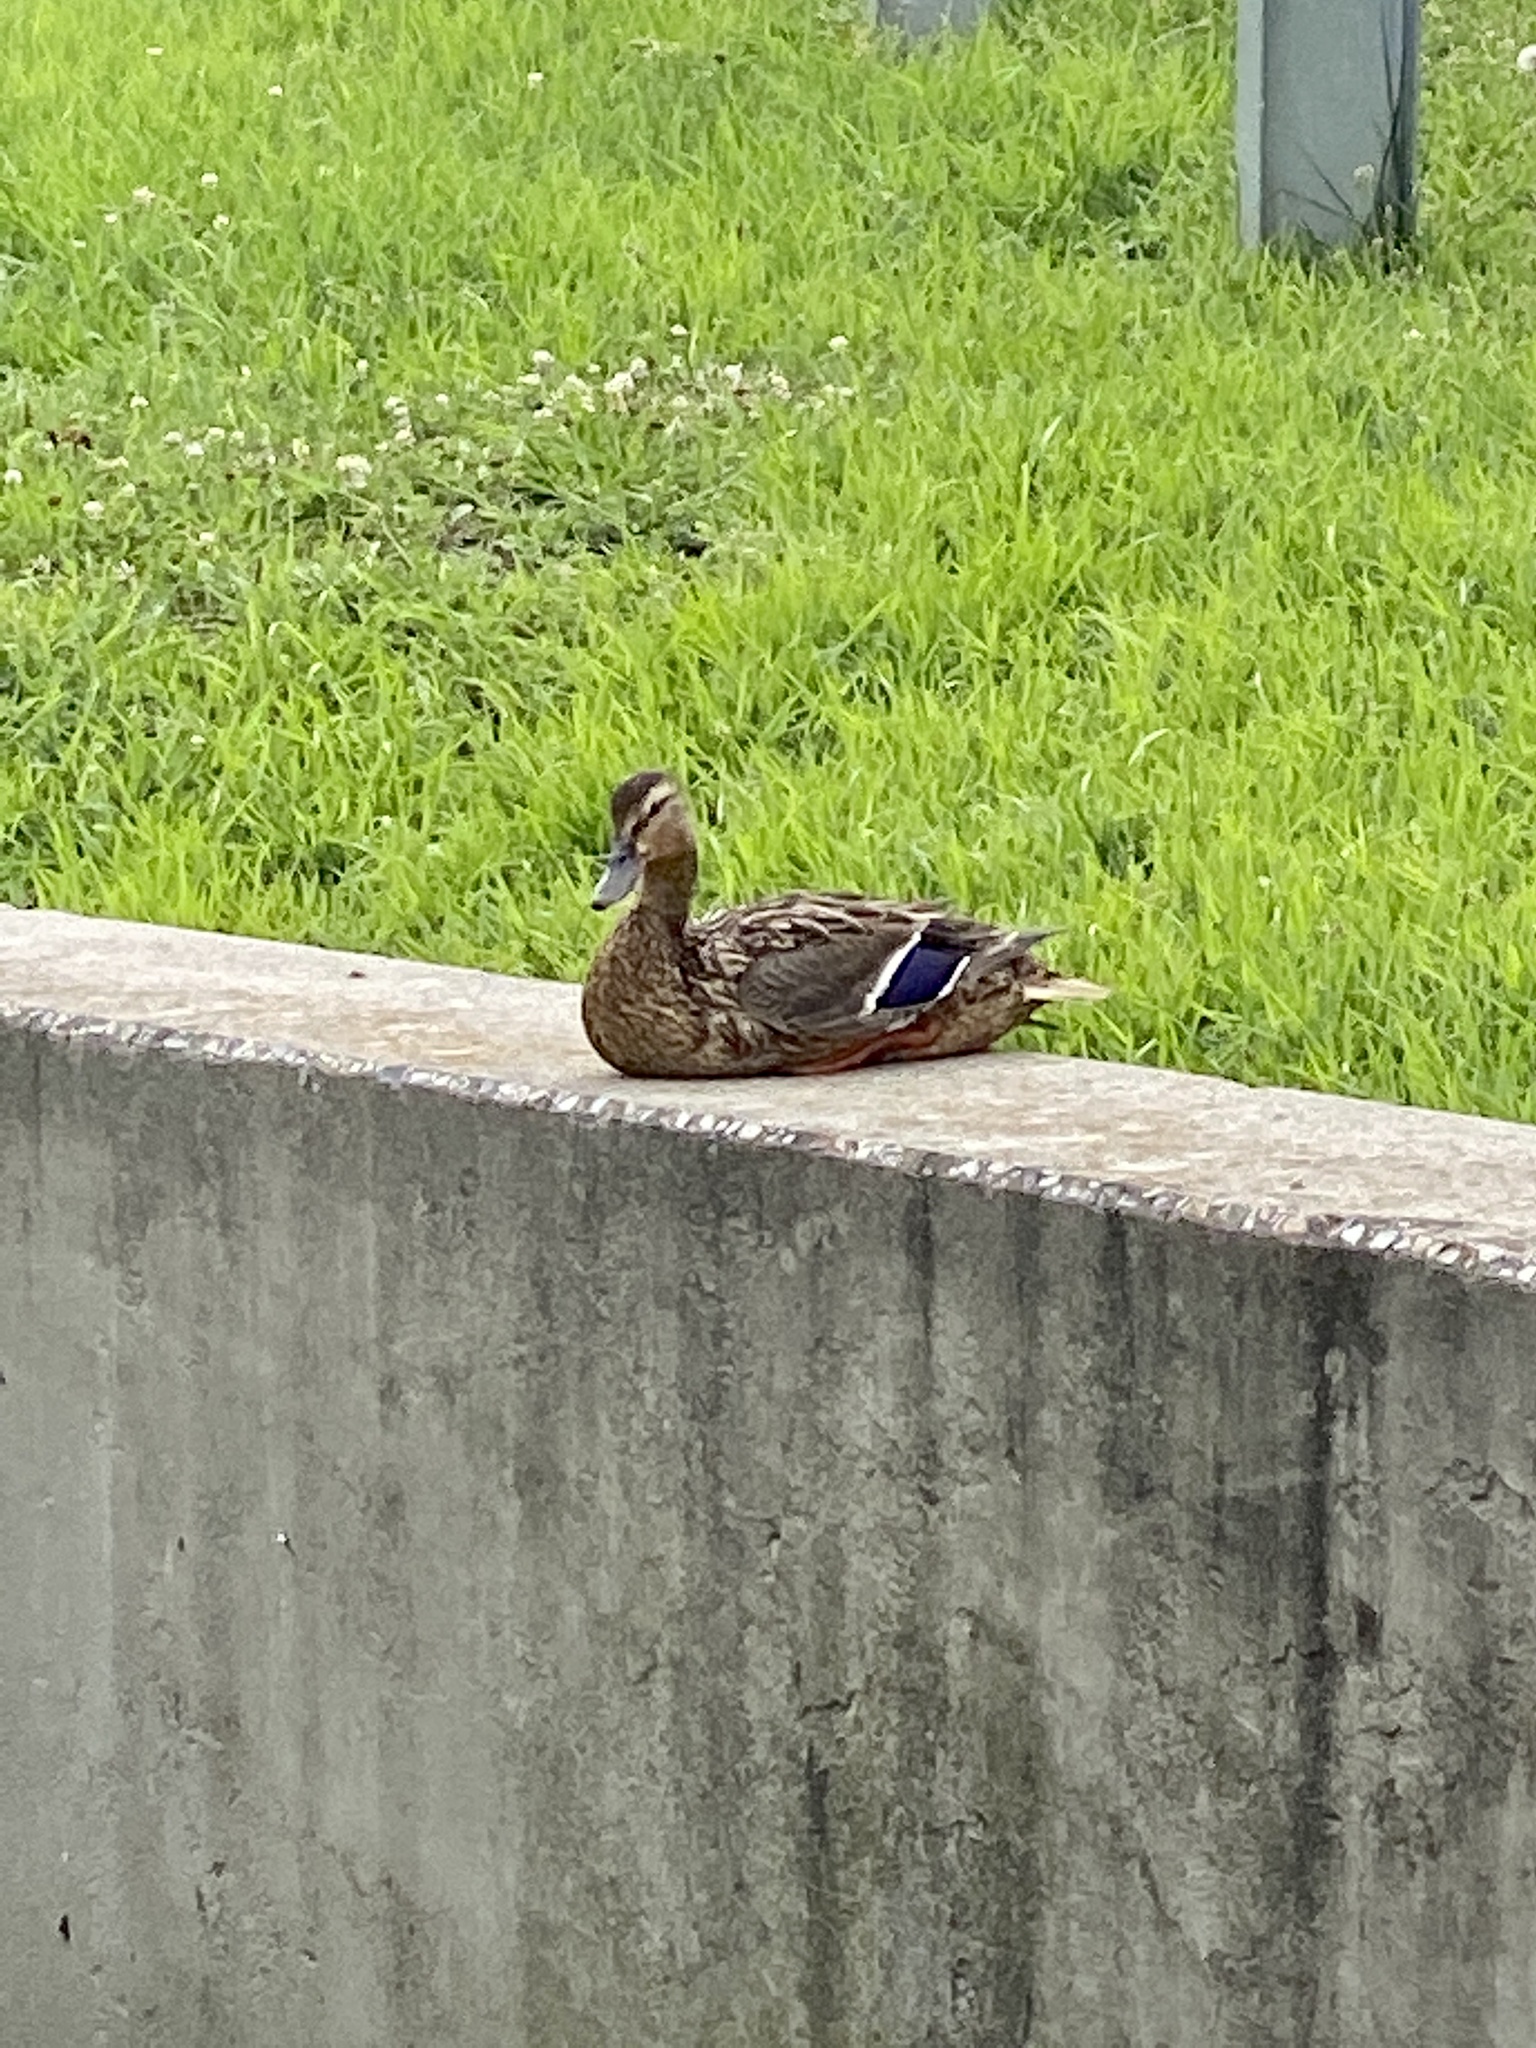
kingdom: Animalia
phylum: Chordata
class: Aves
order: Anseriformes
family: Anatidae
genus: Anas
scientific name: Anas platyrhynchos
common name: Mallard
